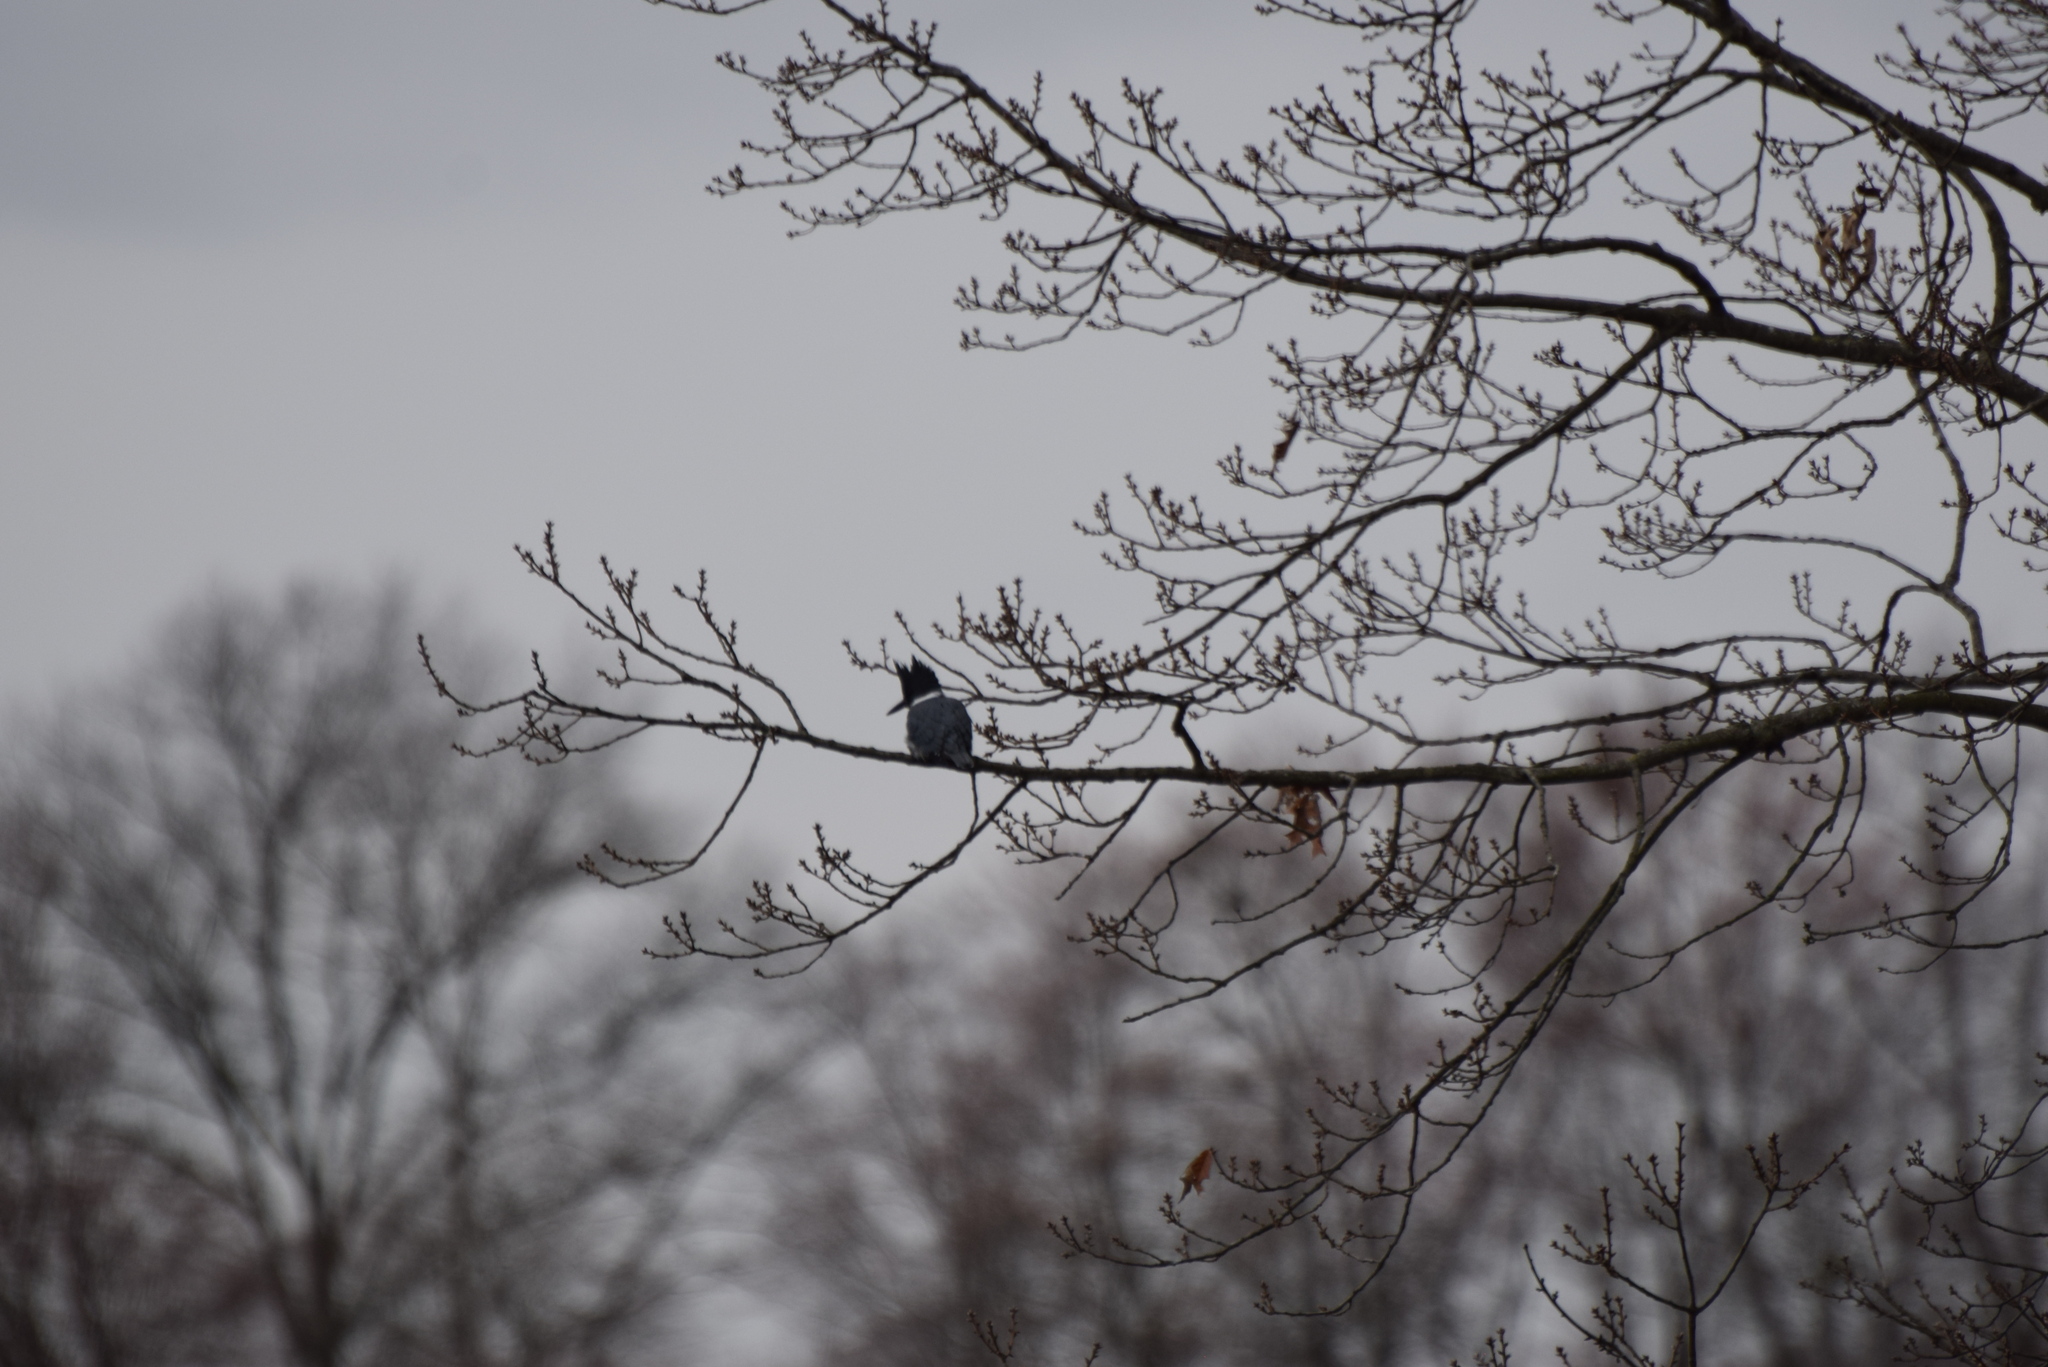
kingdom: Animalia
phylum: Chordata
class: Aves
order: Coraciiformes
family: Alcedinidae
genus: Megaceryle
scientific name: Megaceryle alcyon
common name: Belted kingfisher
